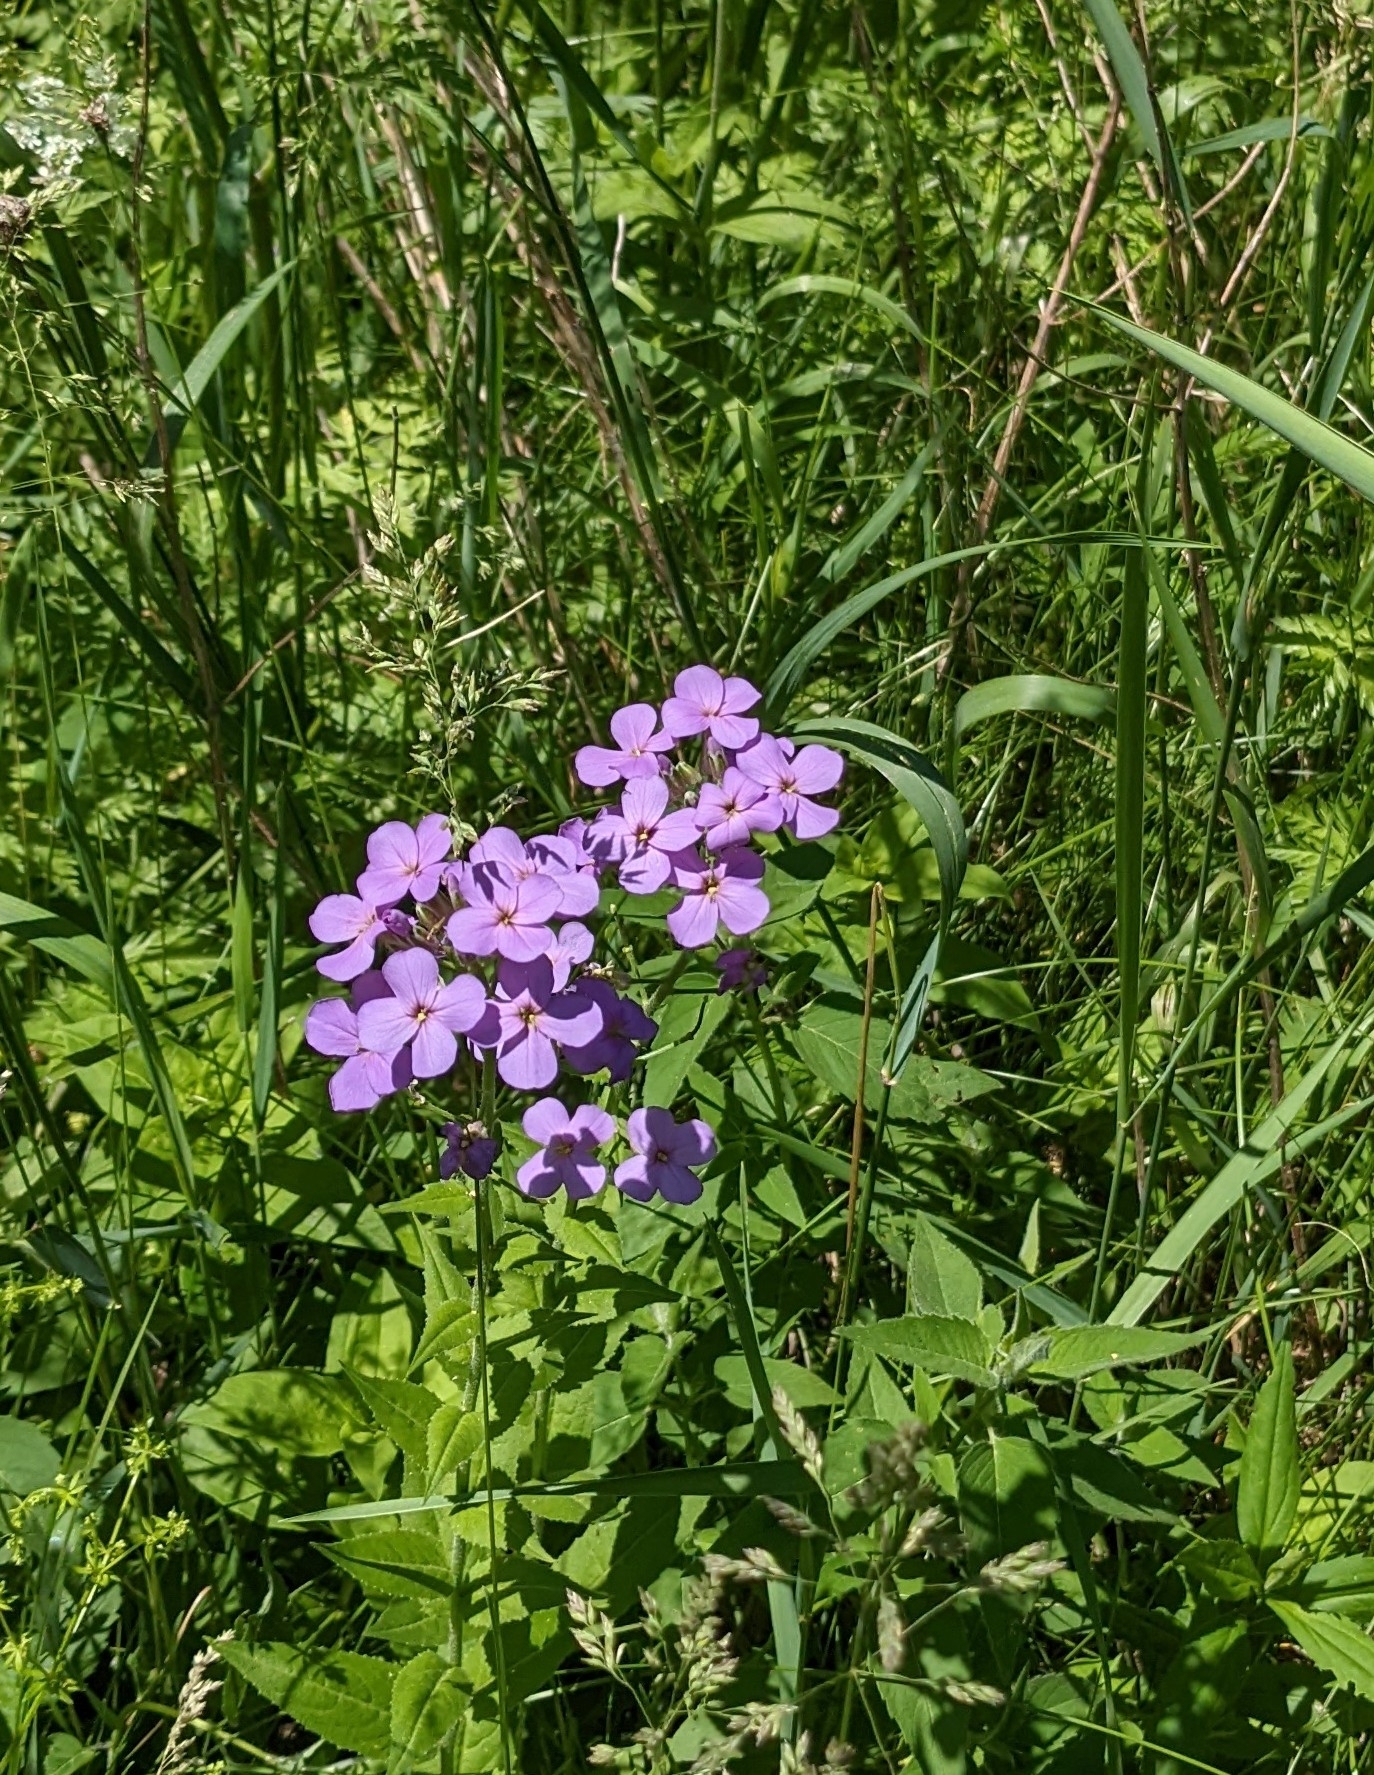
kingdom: Plantae
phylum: Tracheophyta
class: Magnoliopsida
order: Brassicales
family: Brassicaceae
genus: Hesperis
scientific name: Hesperis matronalis
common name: Dame's-violet
